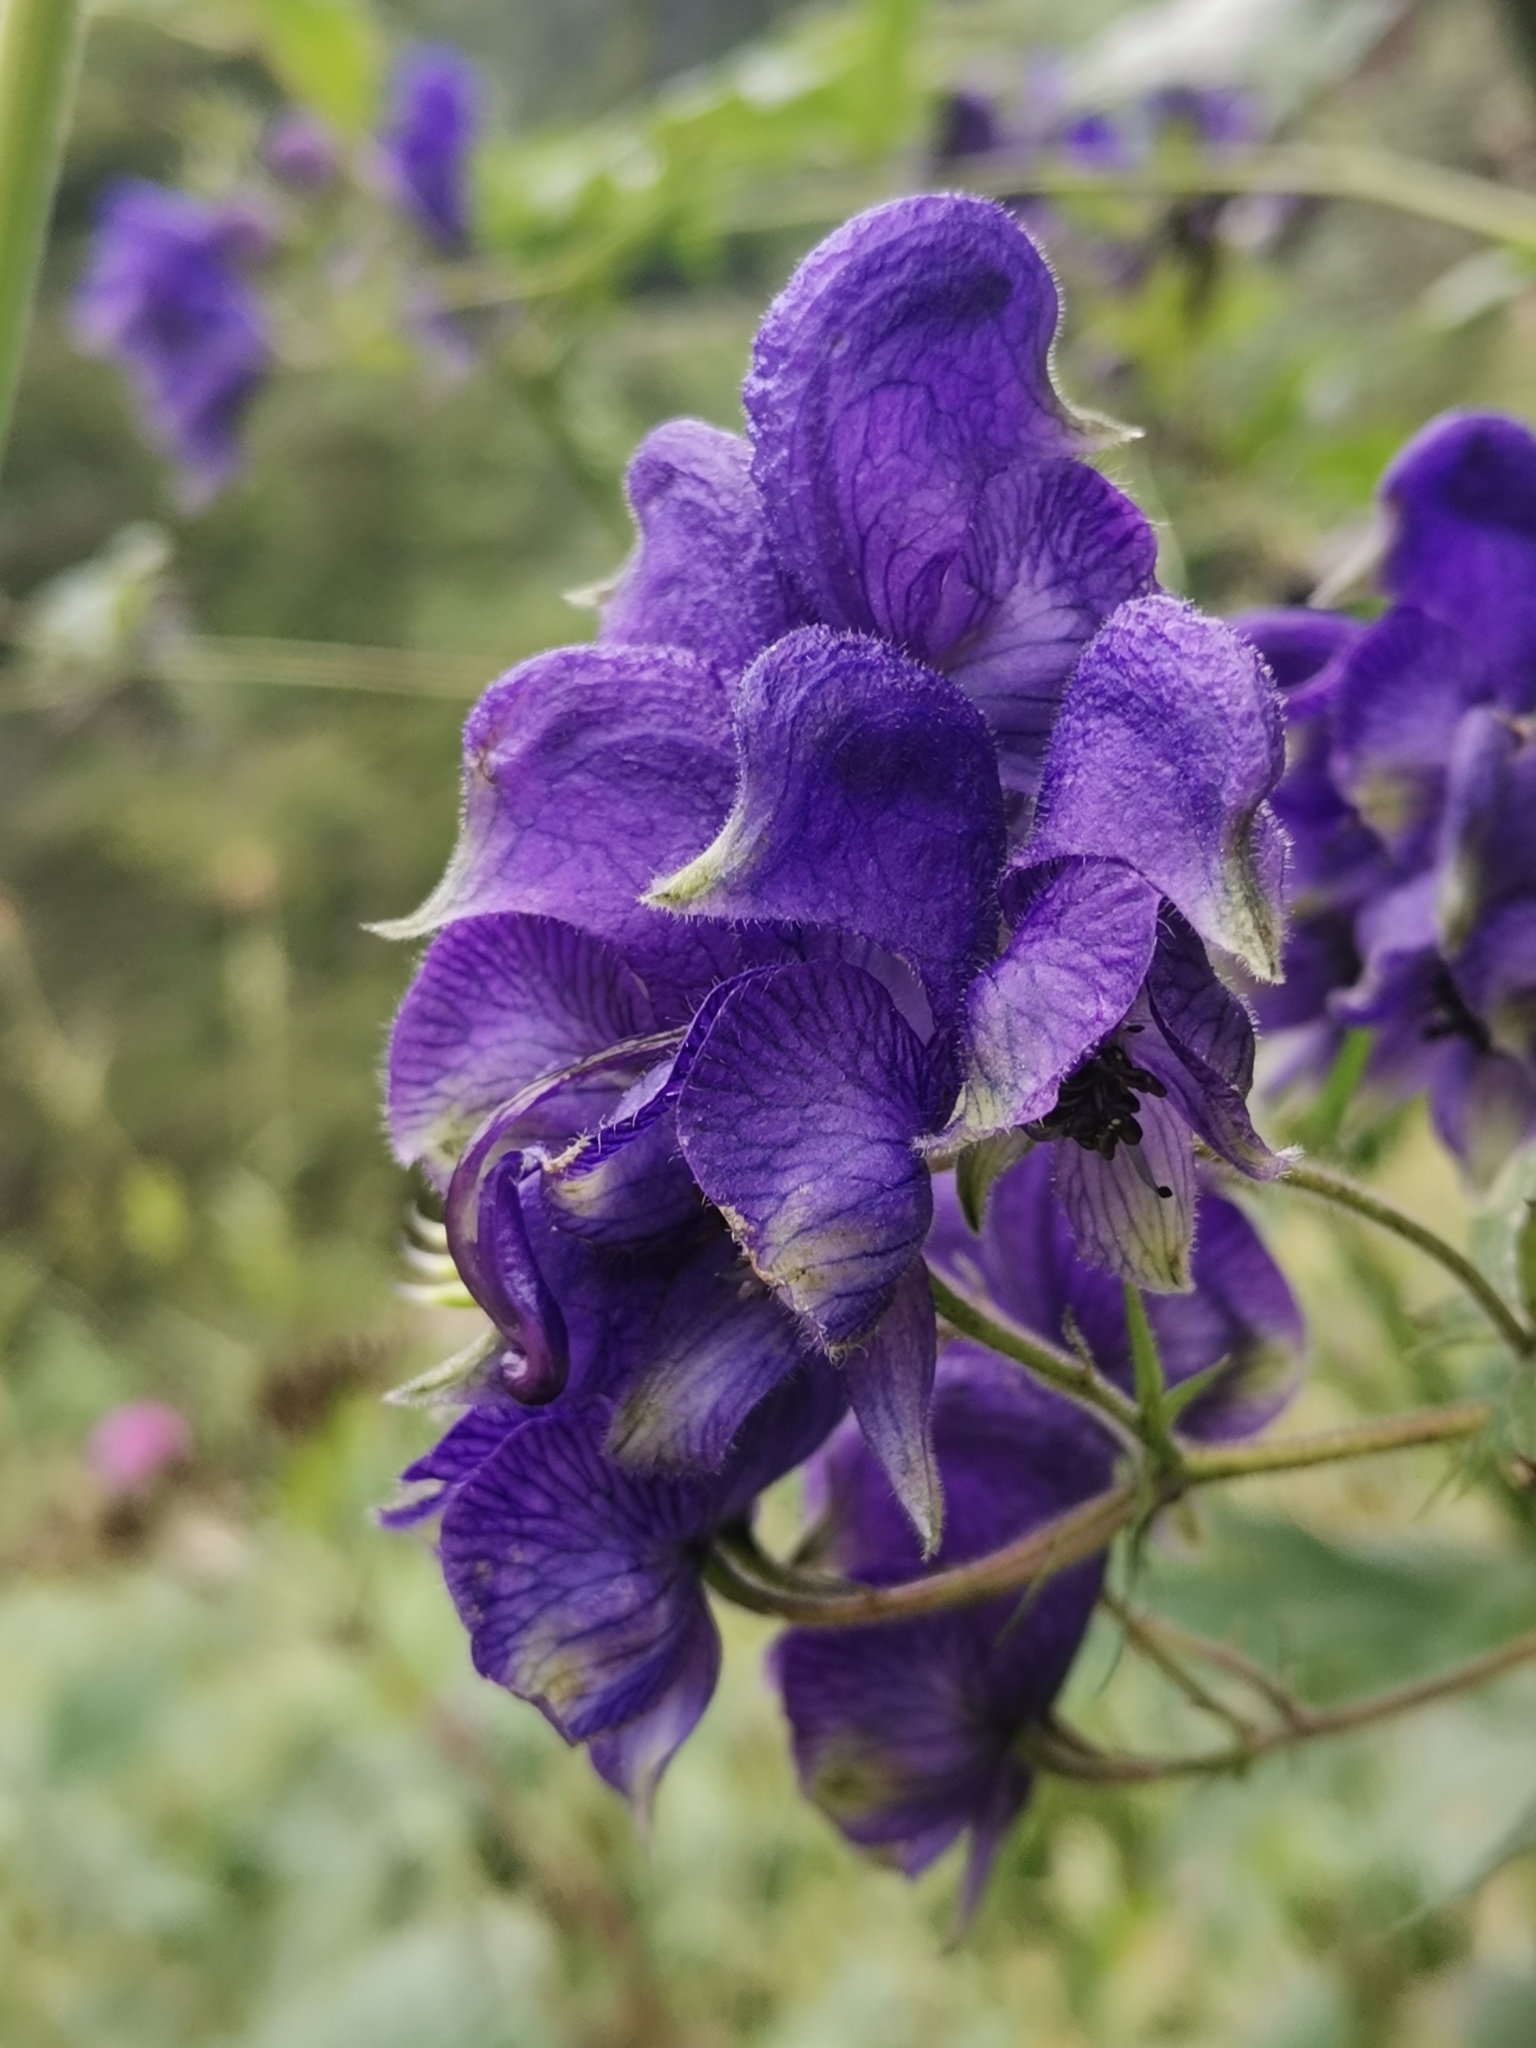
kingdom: Plantae
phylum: Tracheophyta
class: Magnoliopsida
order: Ranunculales
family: Ranunculaceae
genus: Aconitum
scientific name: Aconitum degenii
